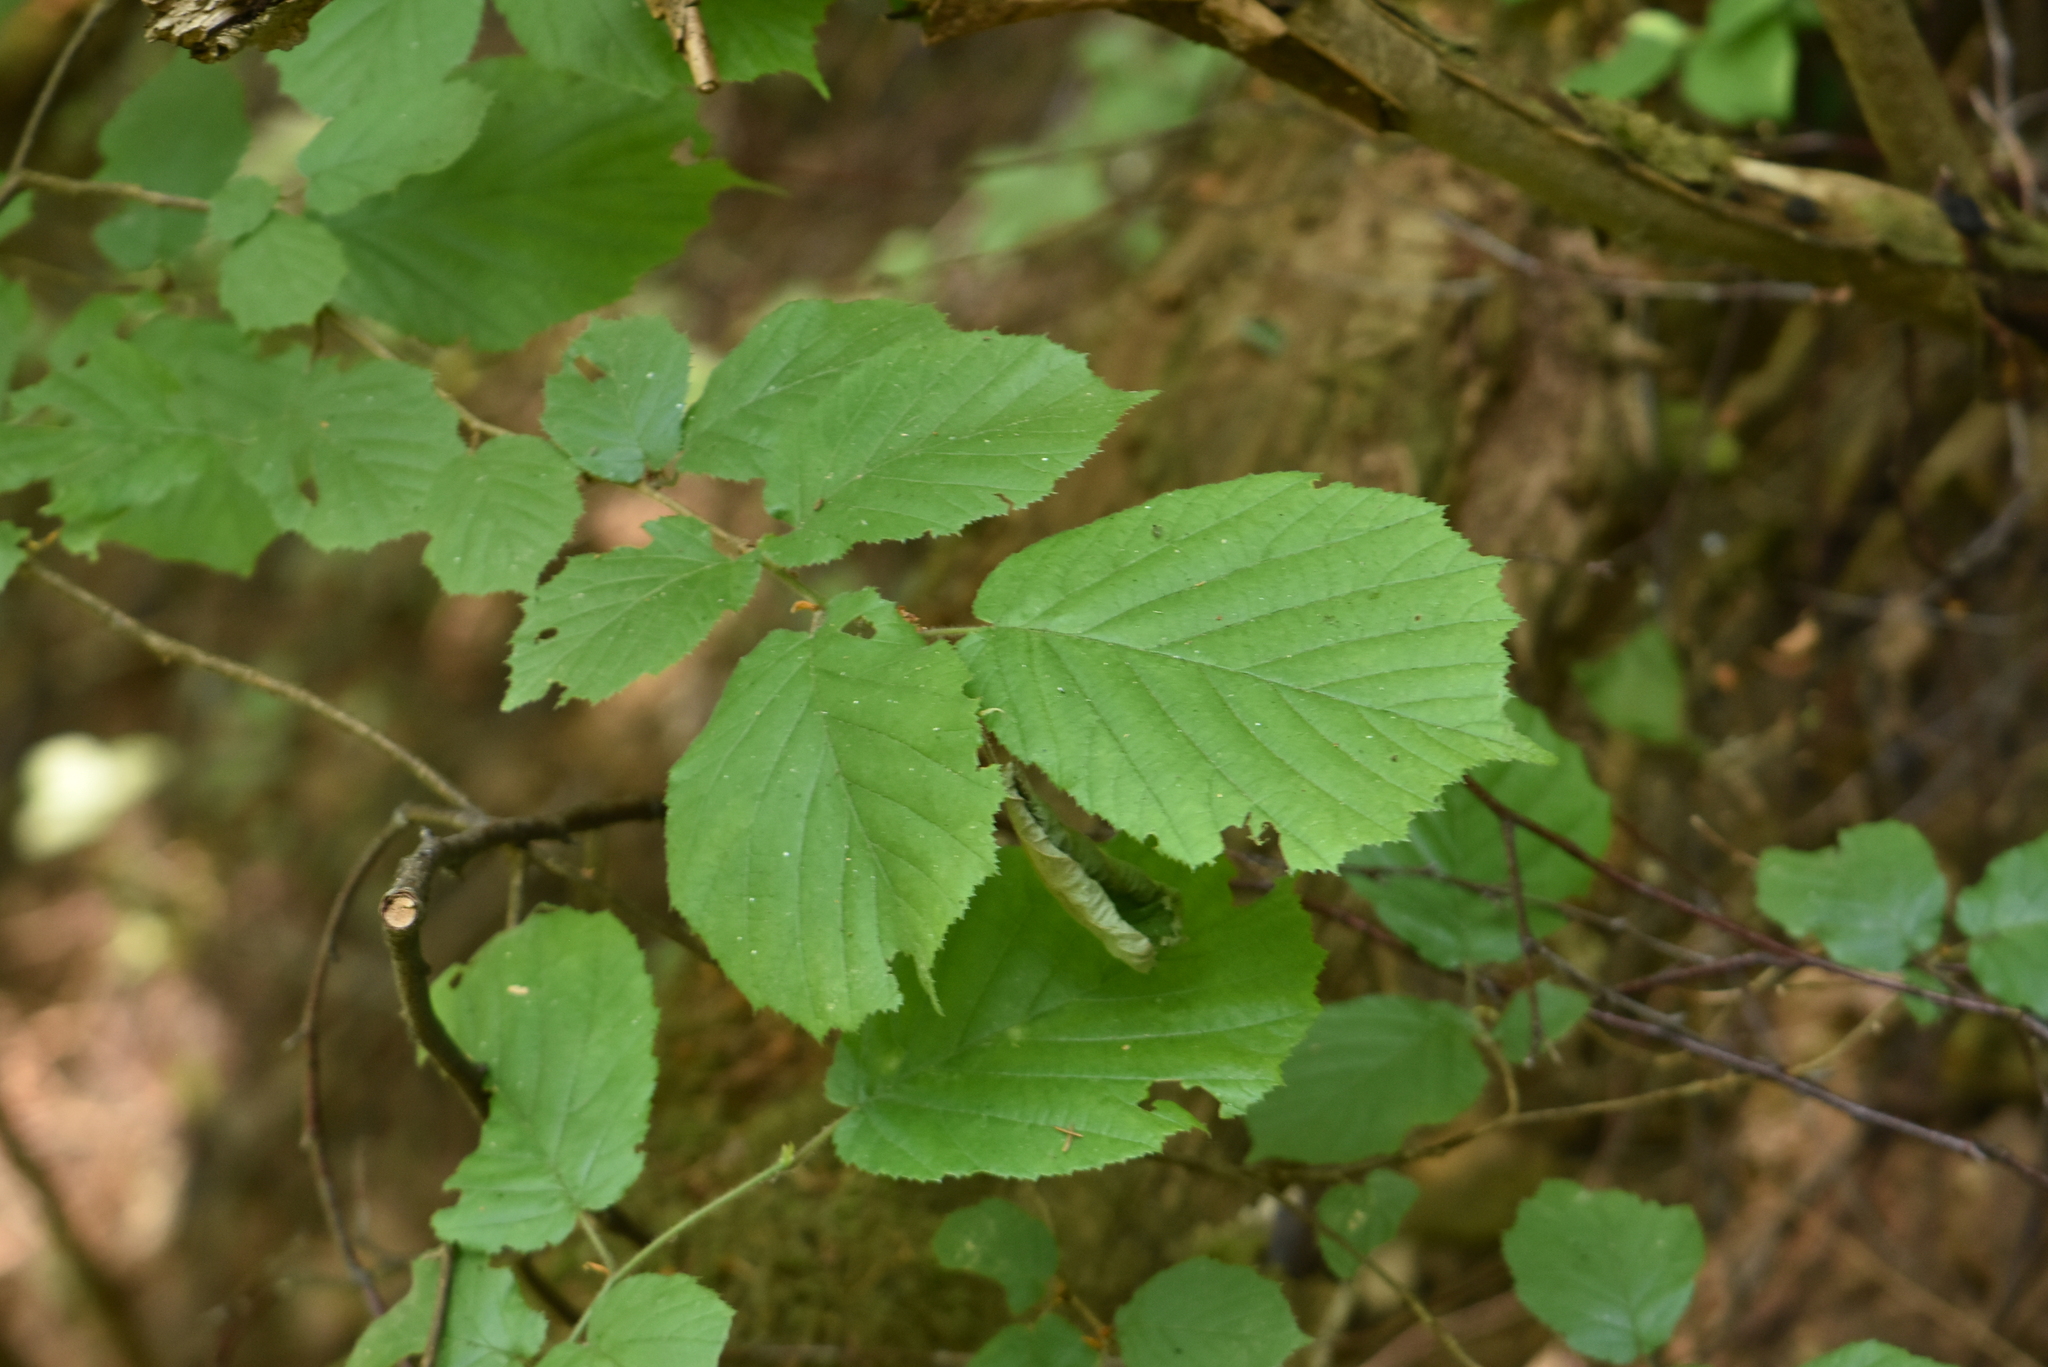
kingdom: Plantae
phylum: Tracheophyta
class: Magnoliopsida
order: Fagales
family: Betulaceae
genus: Corylus
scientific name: Corylus avellana
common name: European hazel
